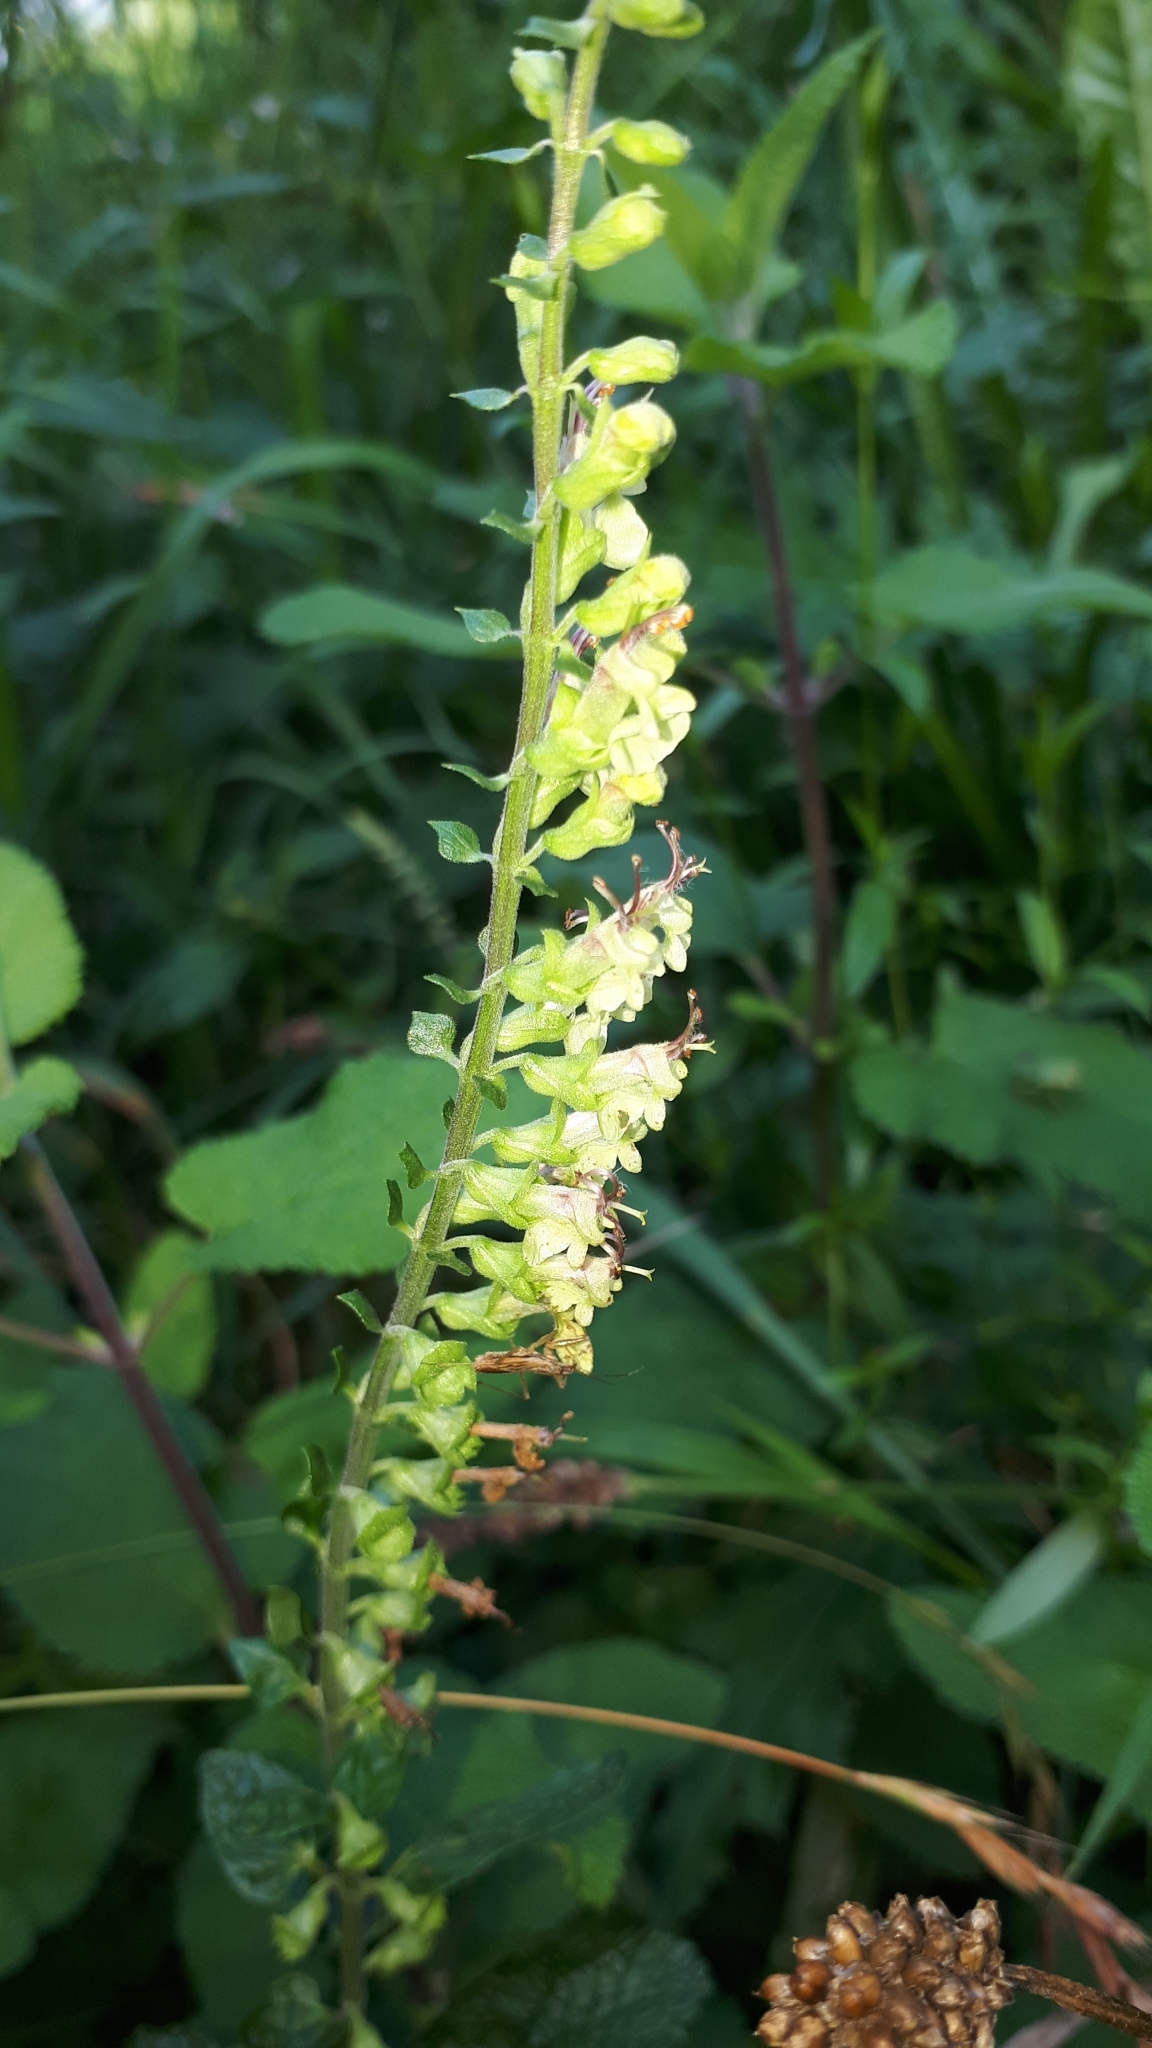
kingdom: Plantae
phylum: Tracheophyta
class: Magnoliopsida
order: Lamiales
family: Lamiaceae
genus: Teucrium
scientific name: Teucrium scorodonia
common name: Woodland germander
